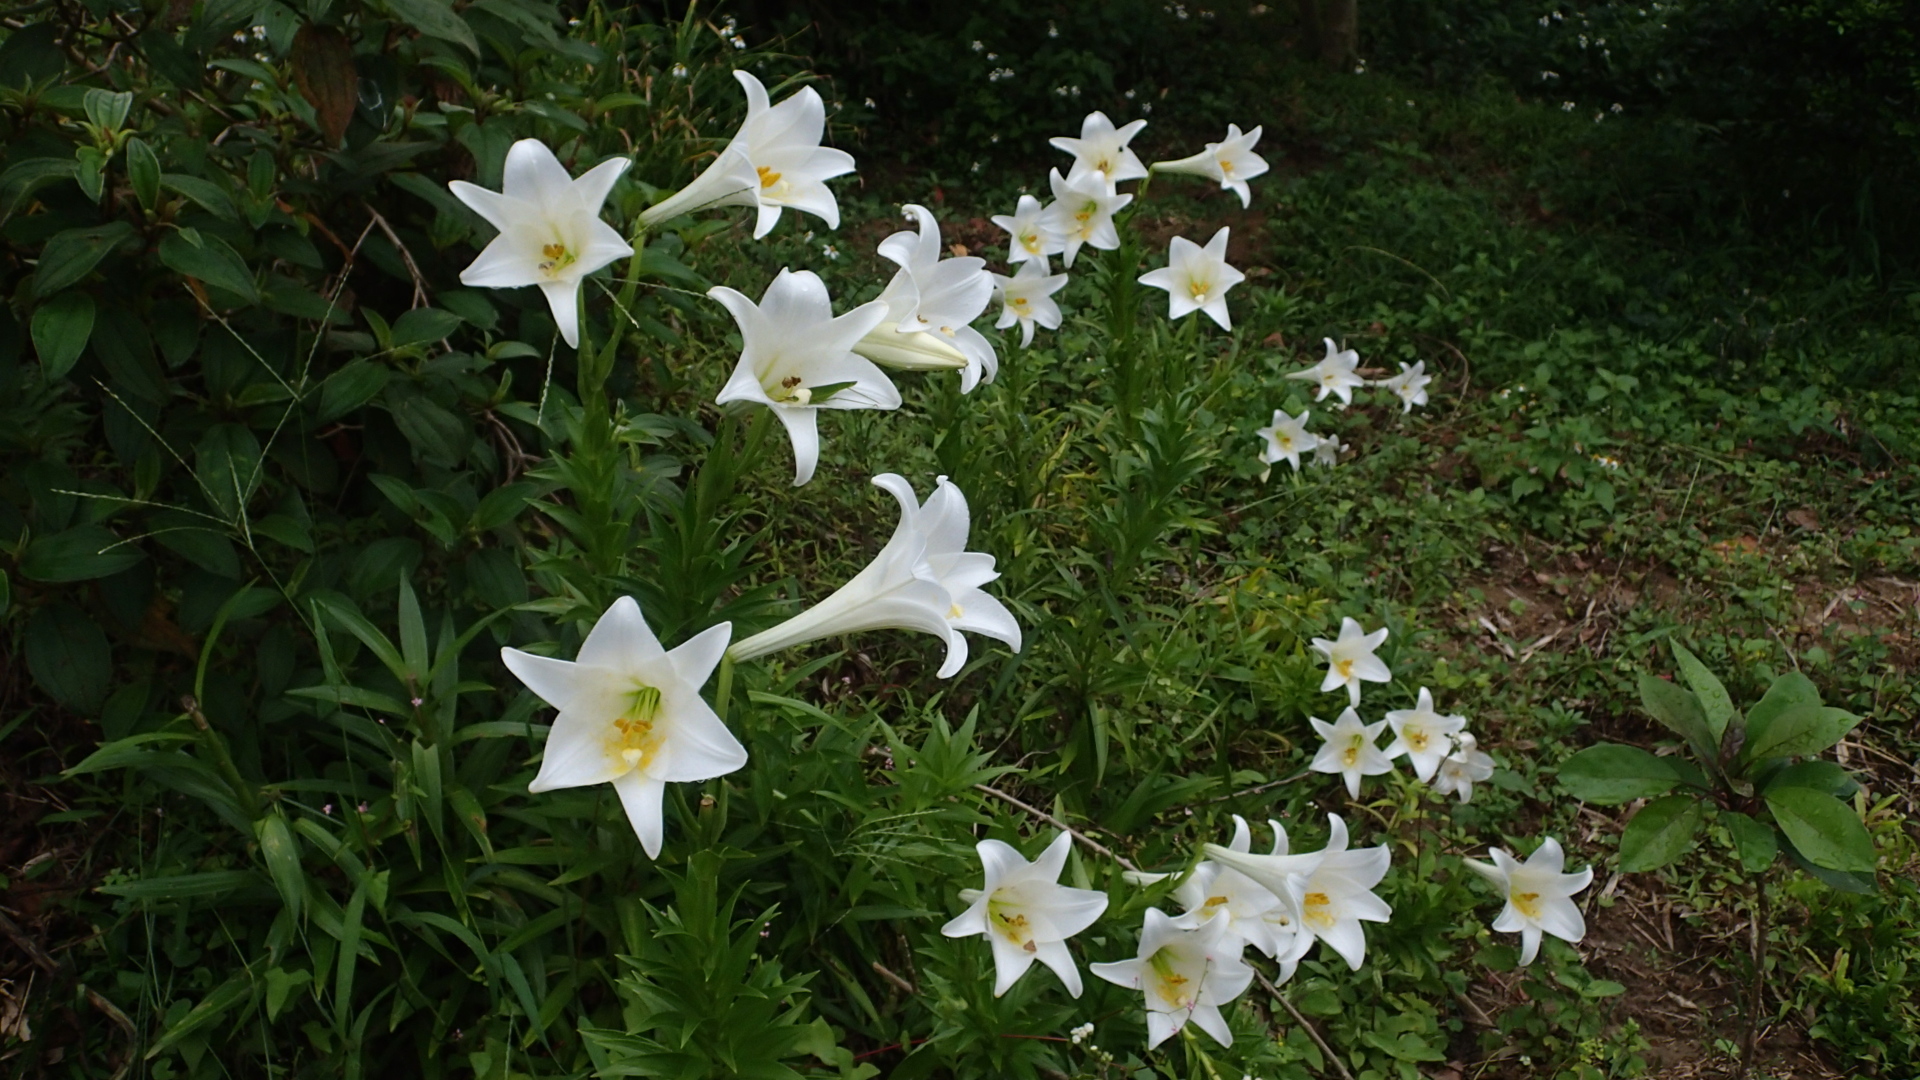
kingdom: Plantae
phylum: Tracheophyta
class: Liliopsida
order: Liliales
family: Liliaceae
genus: Lilium
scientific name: Lilium longiflorum
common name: Easter lily
